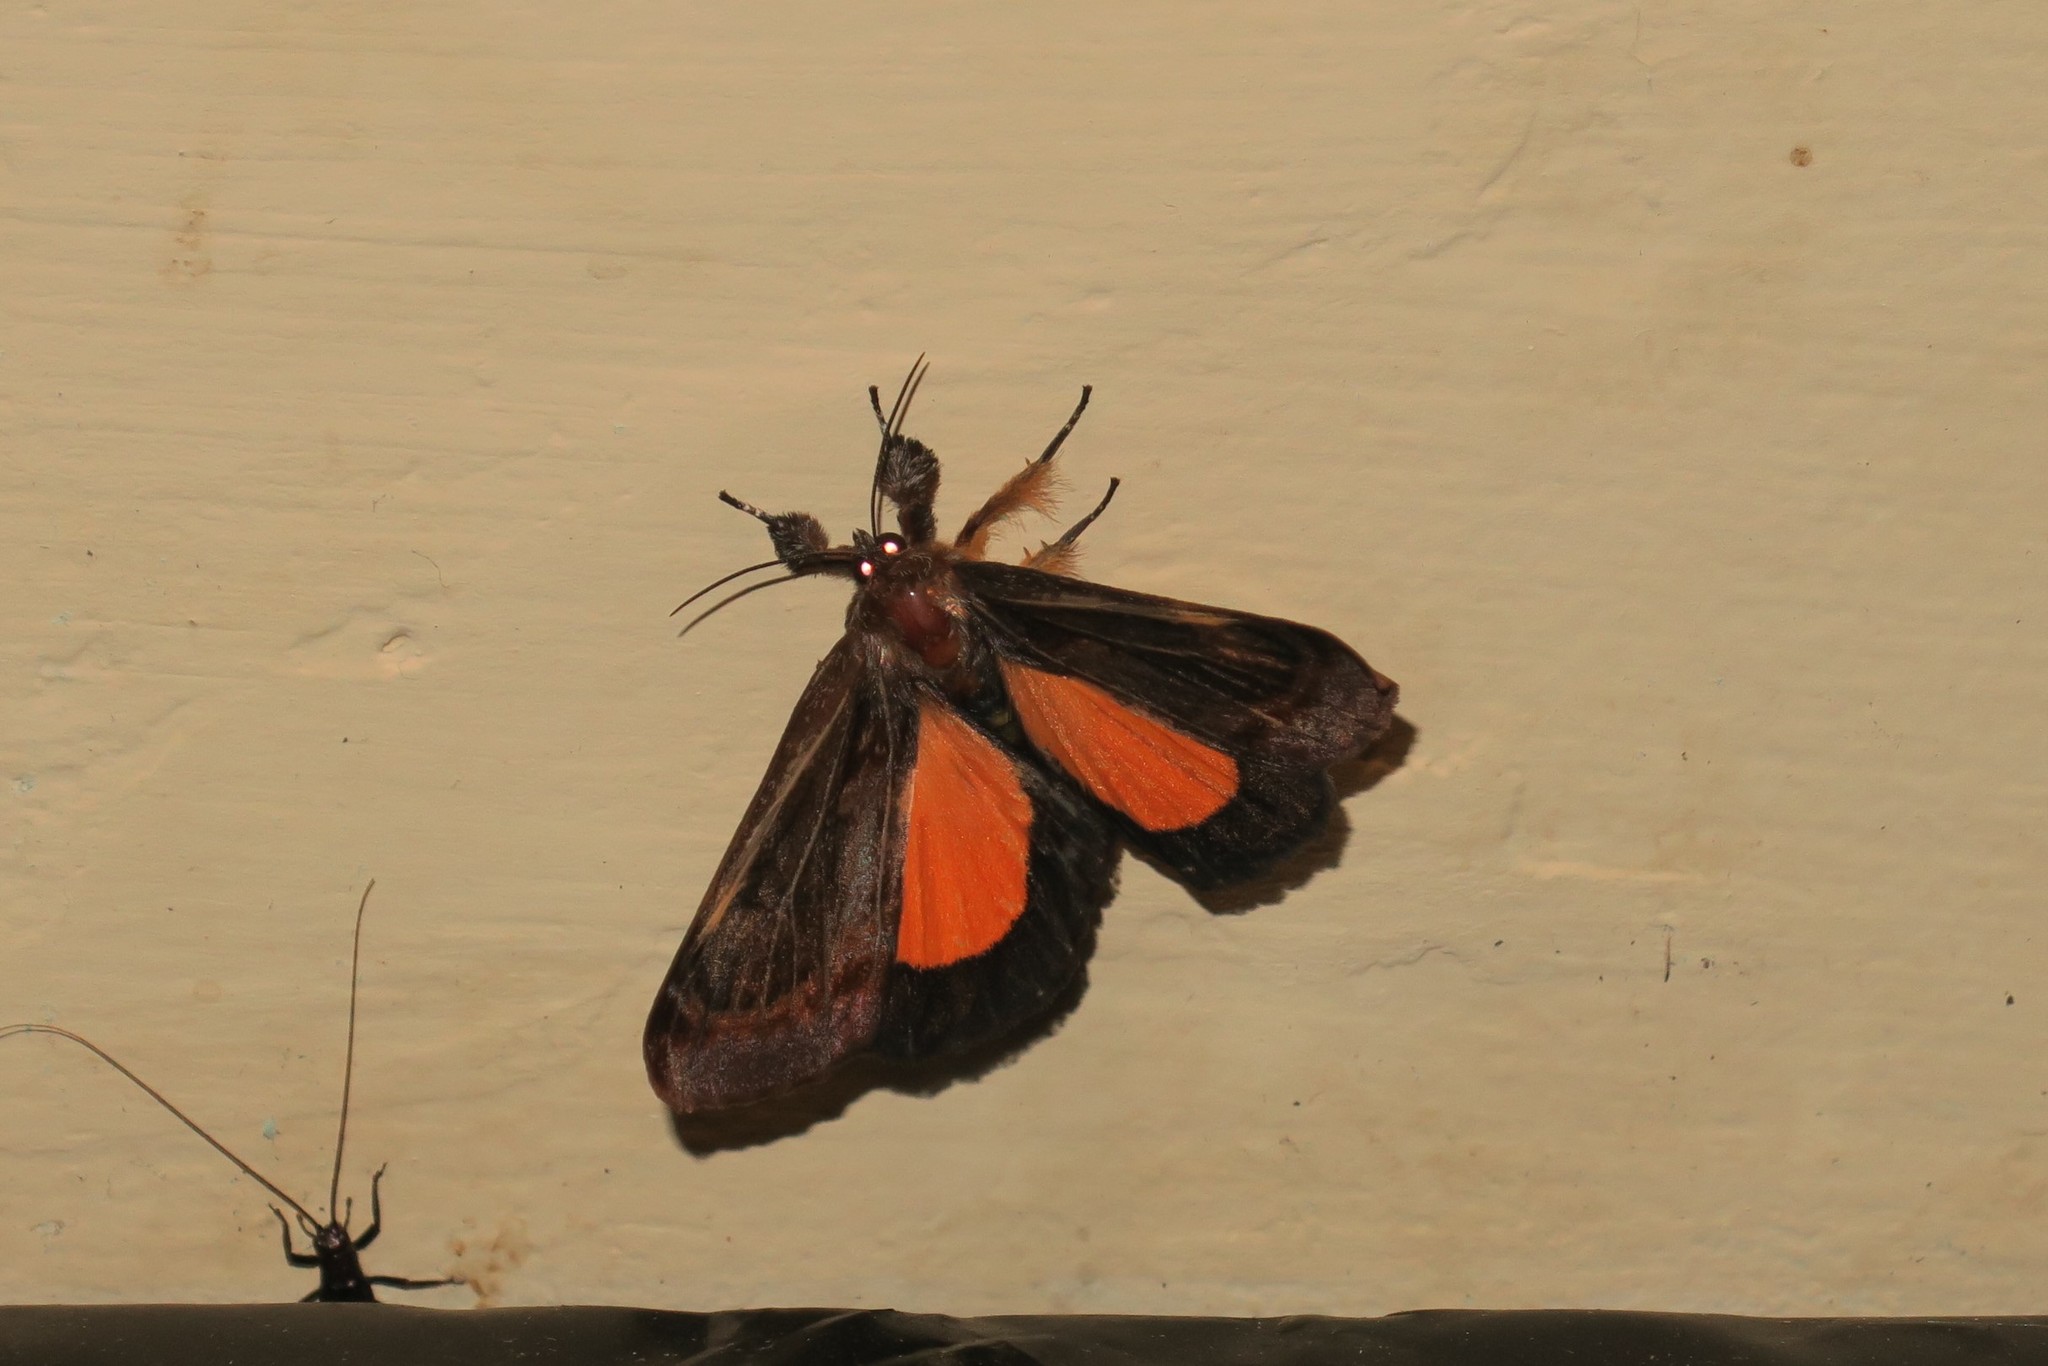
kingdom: Animalia
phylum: Arthropoda
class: Insecta
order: Lepidoptera
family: Noctuidae
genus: Darceta
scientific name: Darceta severa
